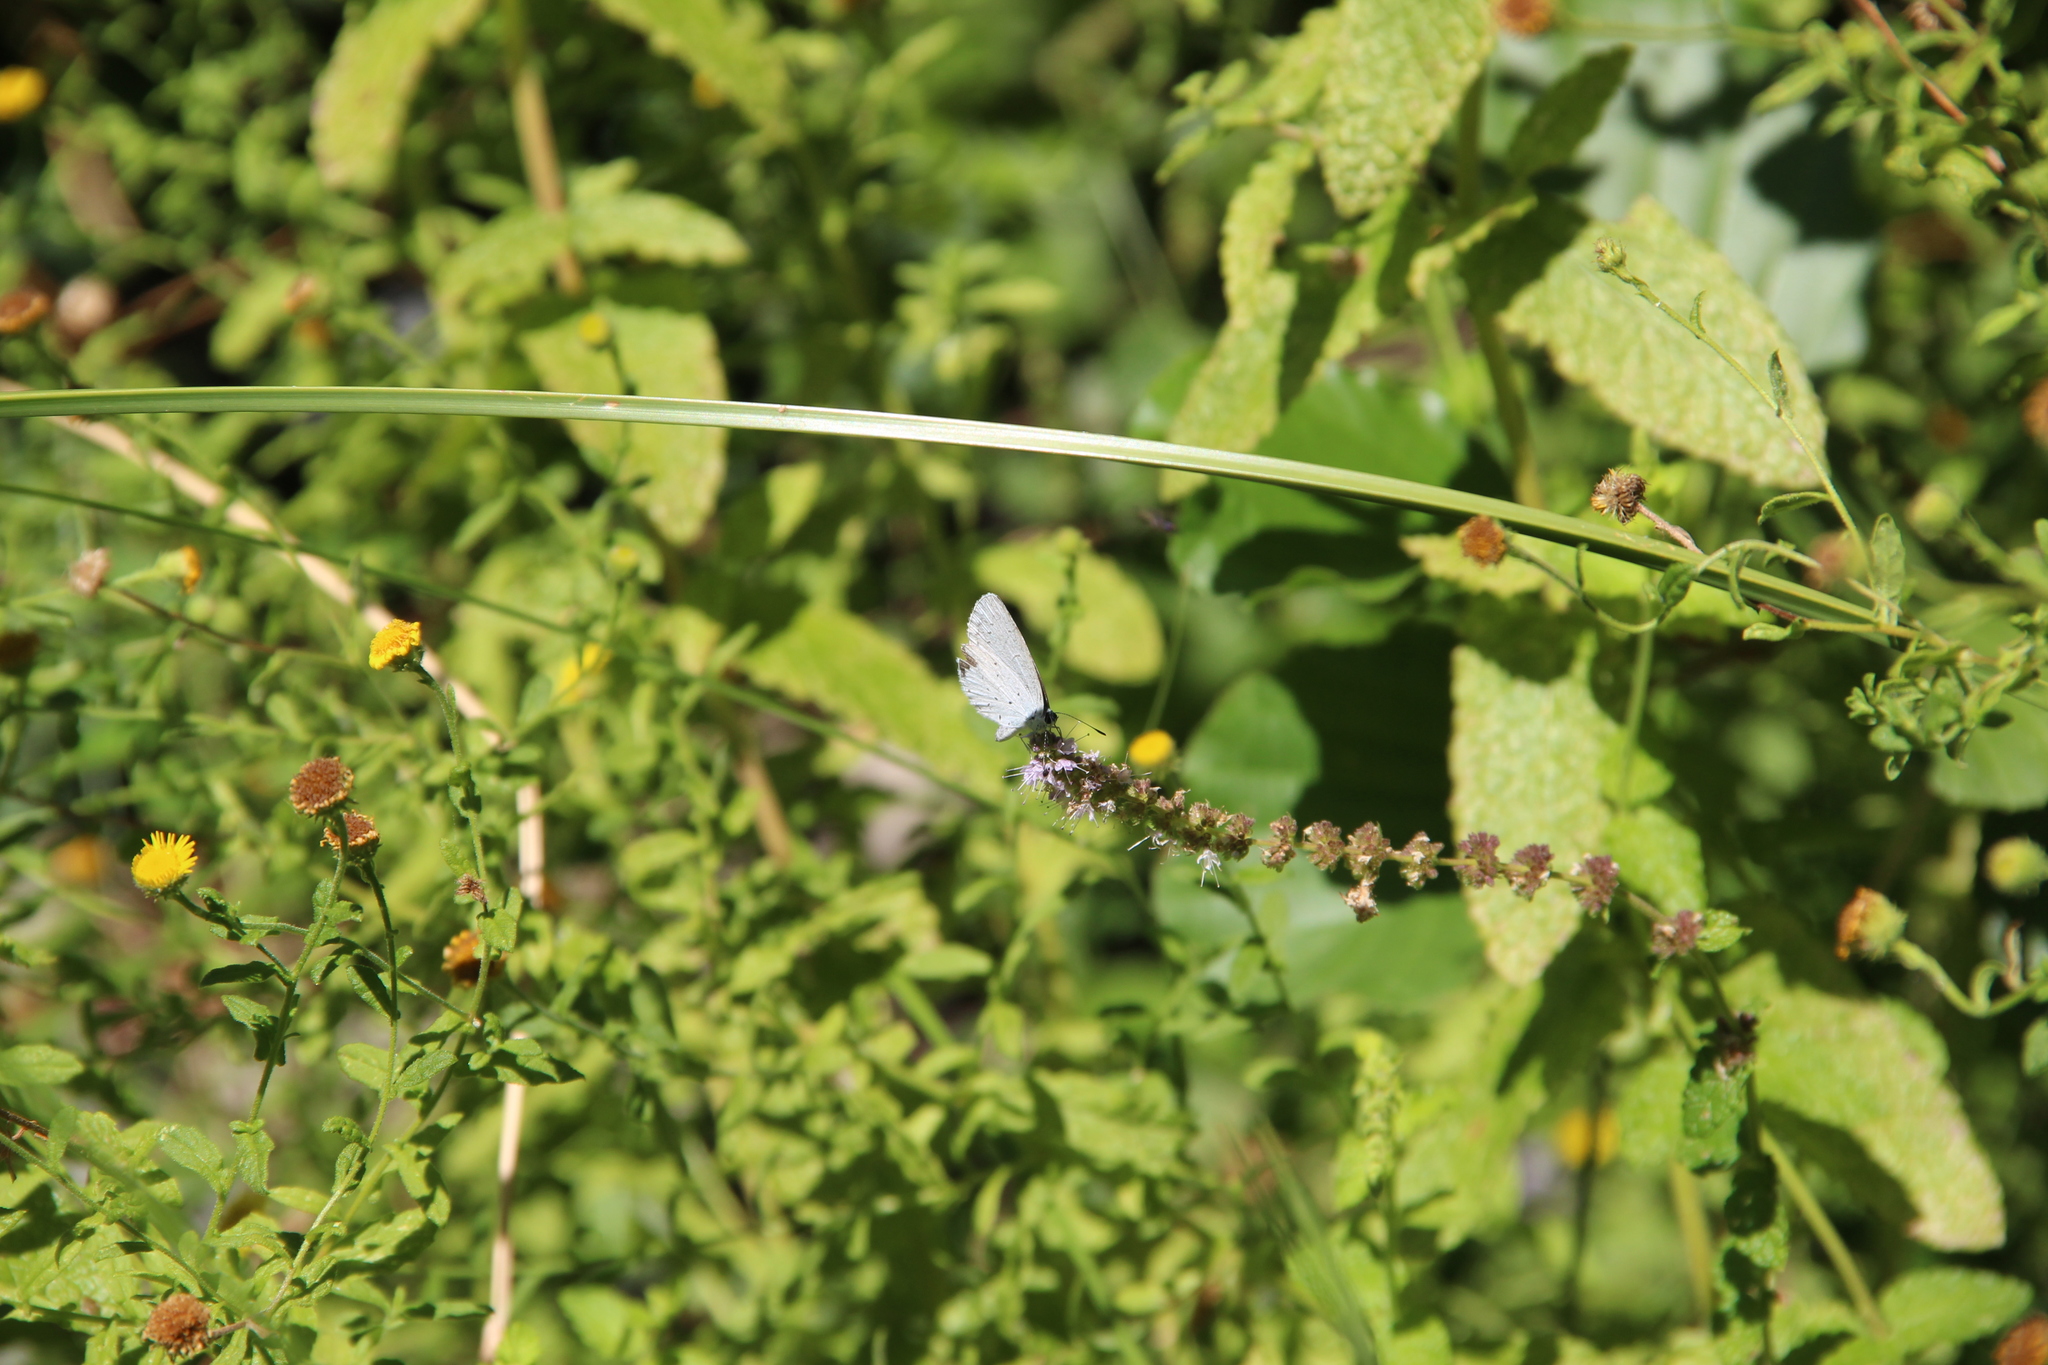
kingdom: Animalia
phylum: Arthropoda
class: Insecta
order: Lepidoptera
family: Lycaenidae
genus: Celastrina
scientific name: Celastrina argiolus
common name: Holly blue
